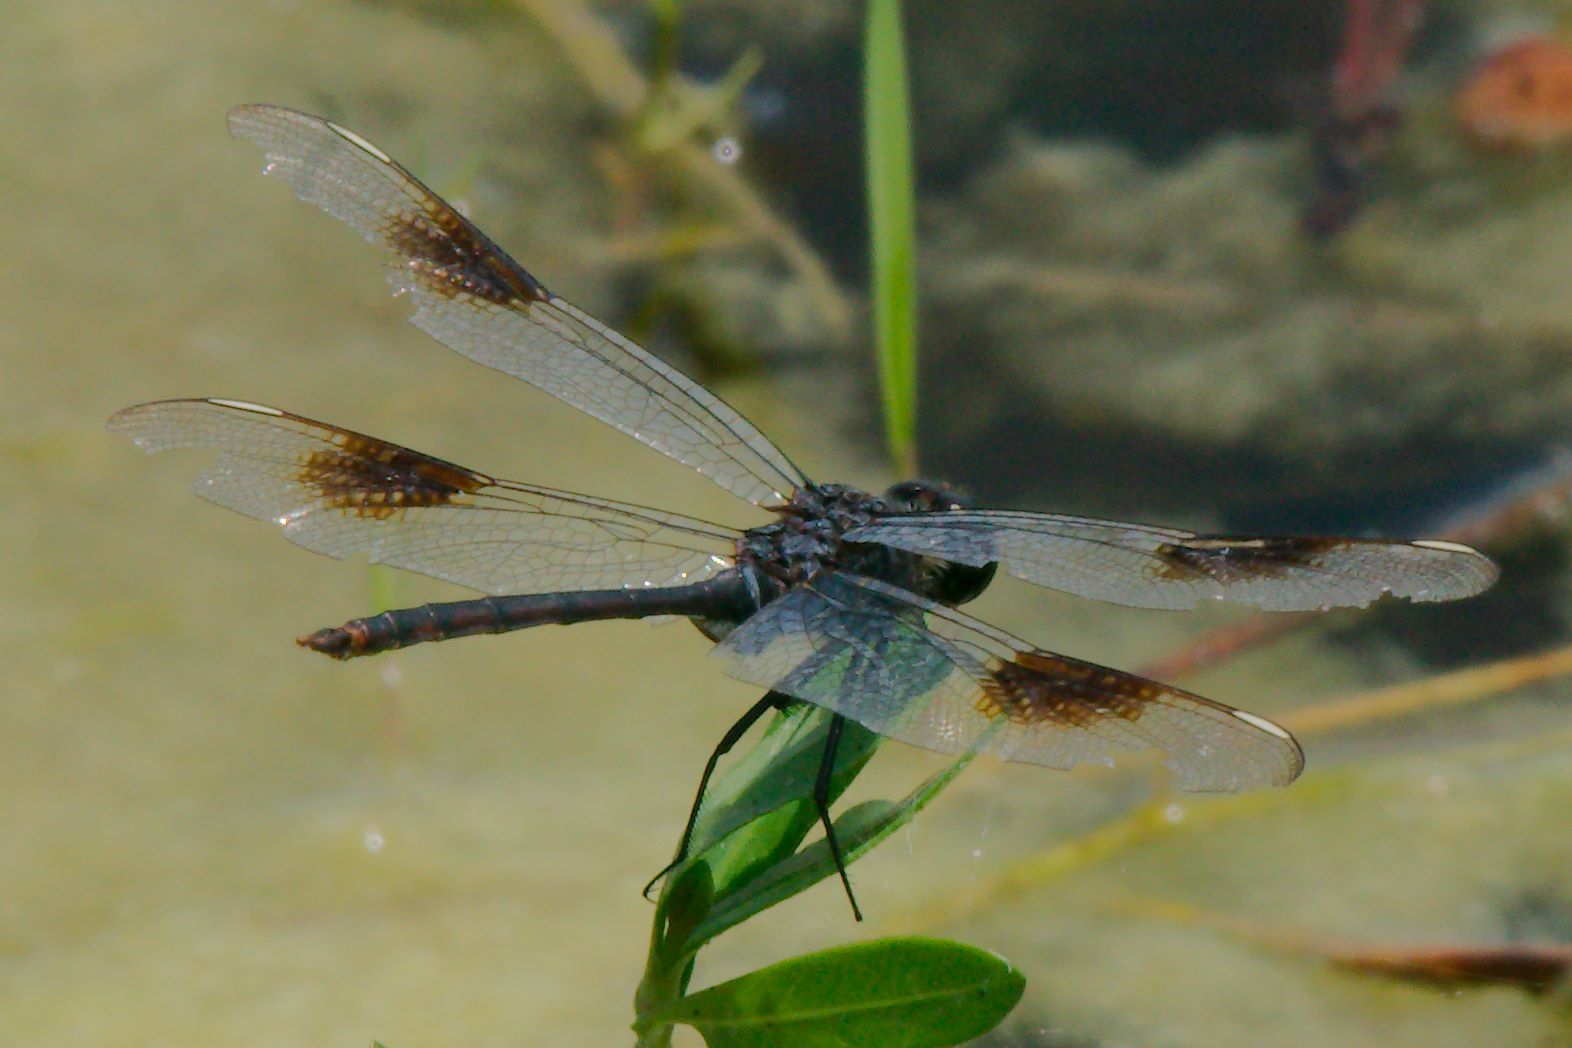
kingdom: Animalia
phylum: Arthropoda
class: Insecta
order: Odonata
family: Libellulidae
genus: Brachymesia
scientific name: Brachymesia gravida
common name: Four-spotted pennant
